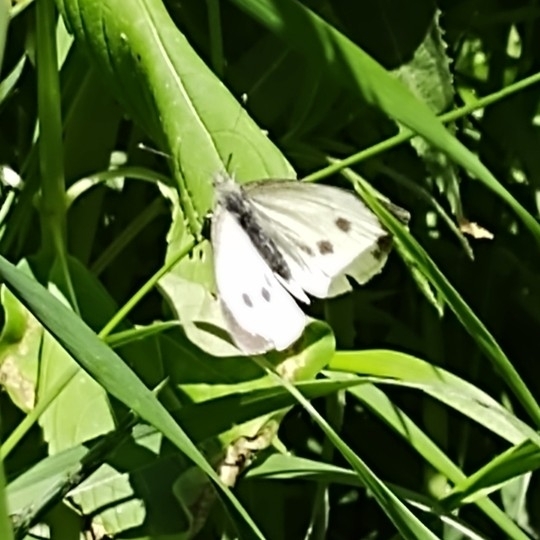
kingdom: Animalia
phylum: Arthropoda
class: Insecta
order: Lepidoptera
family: Pieridae
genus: Pieris
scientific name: Pieris brassicae
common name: Large white
